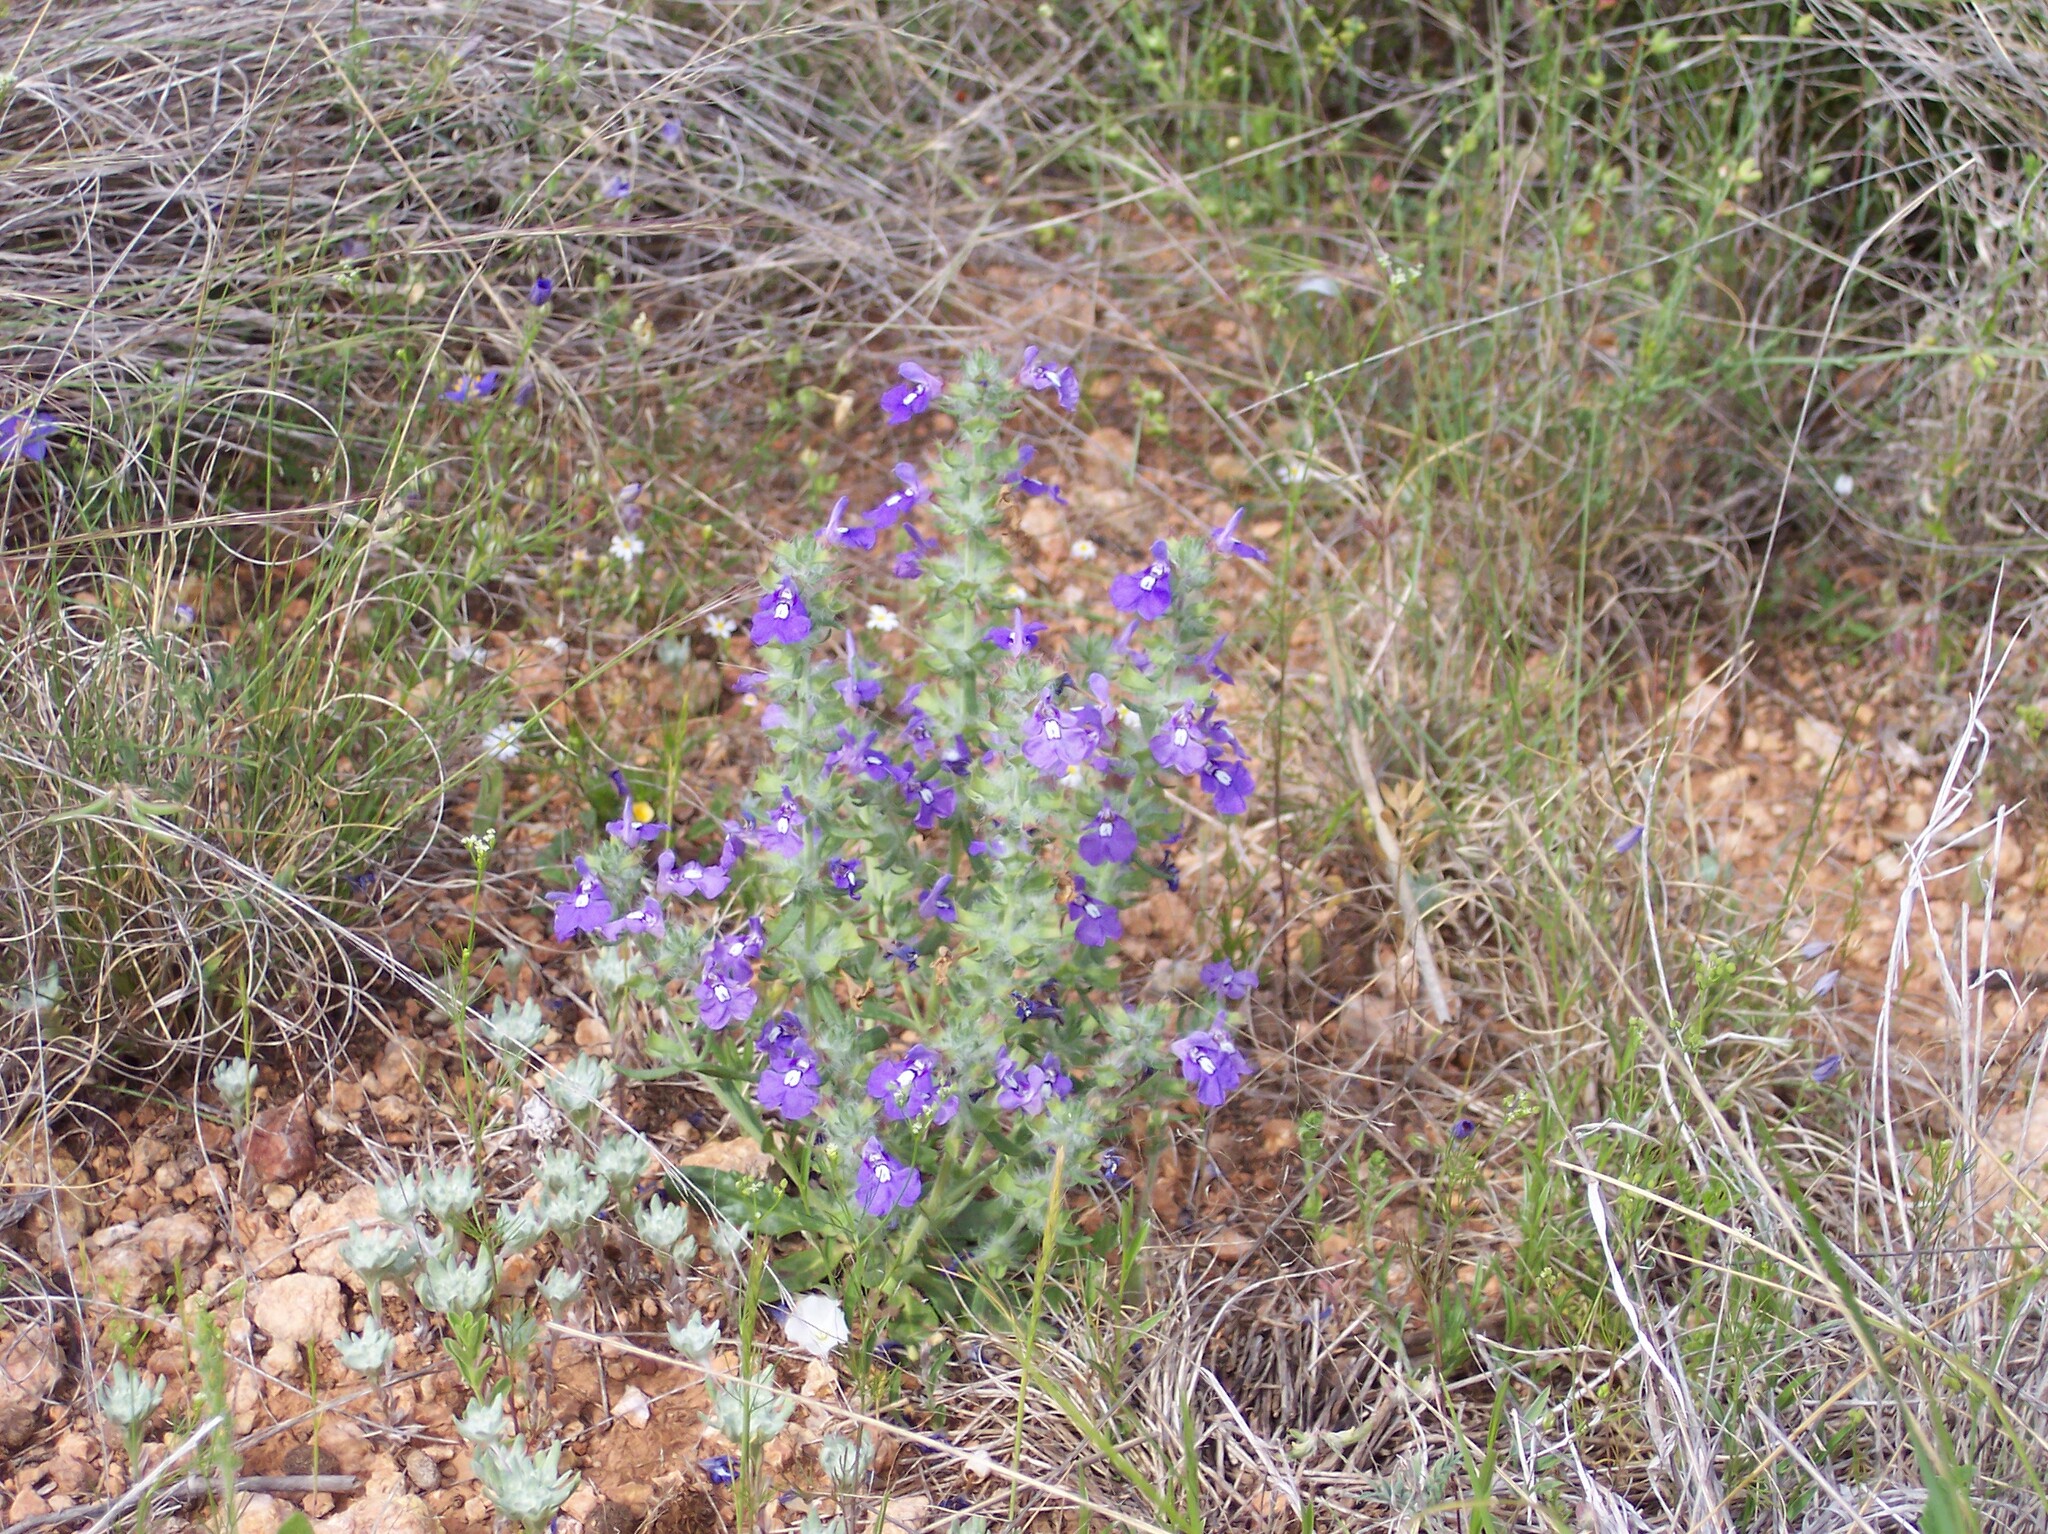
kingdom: Plantae
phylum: Tracheophyta
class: Magnoliopsida
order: Lamiales
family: Lamiaceae
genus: Scutellaria
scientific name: Scutellaria drummondii
